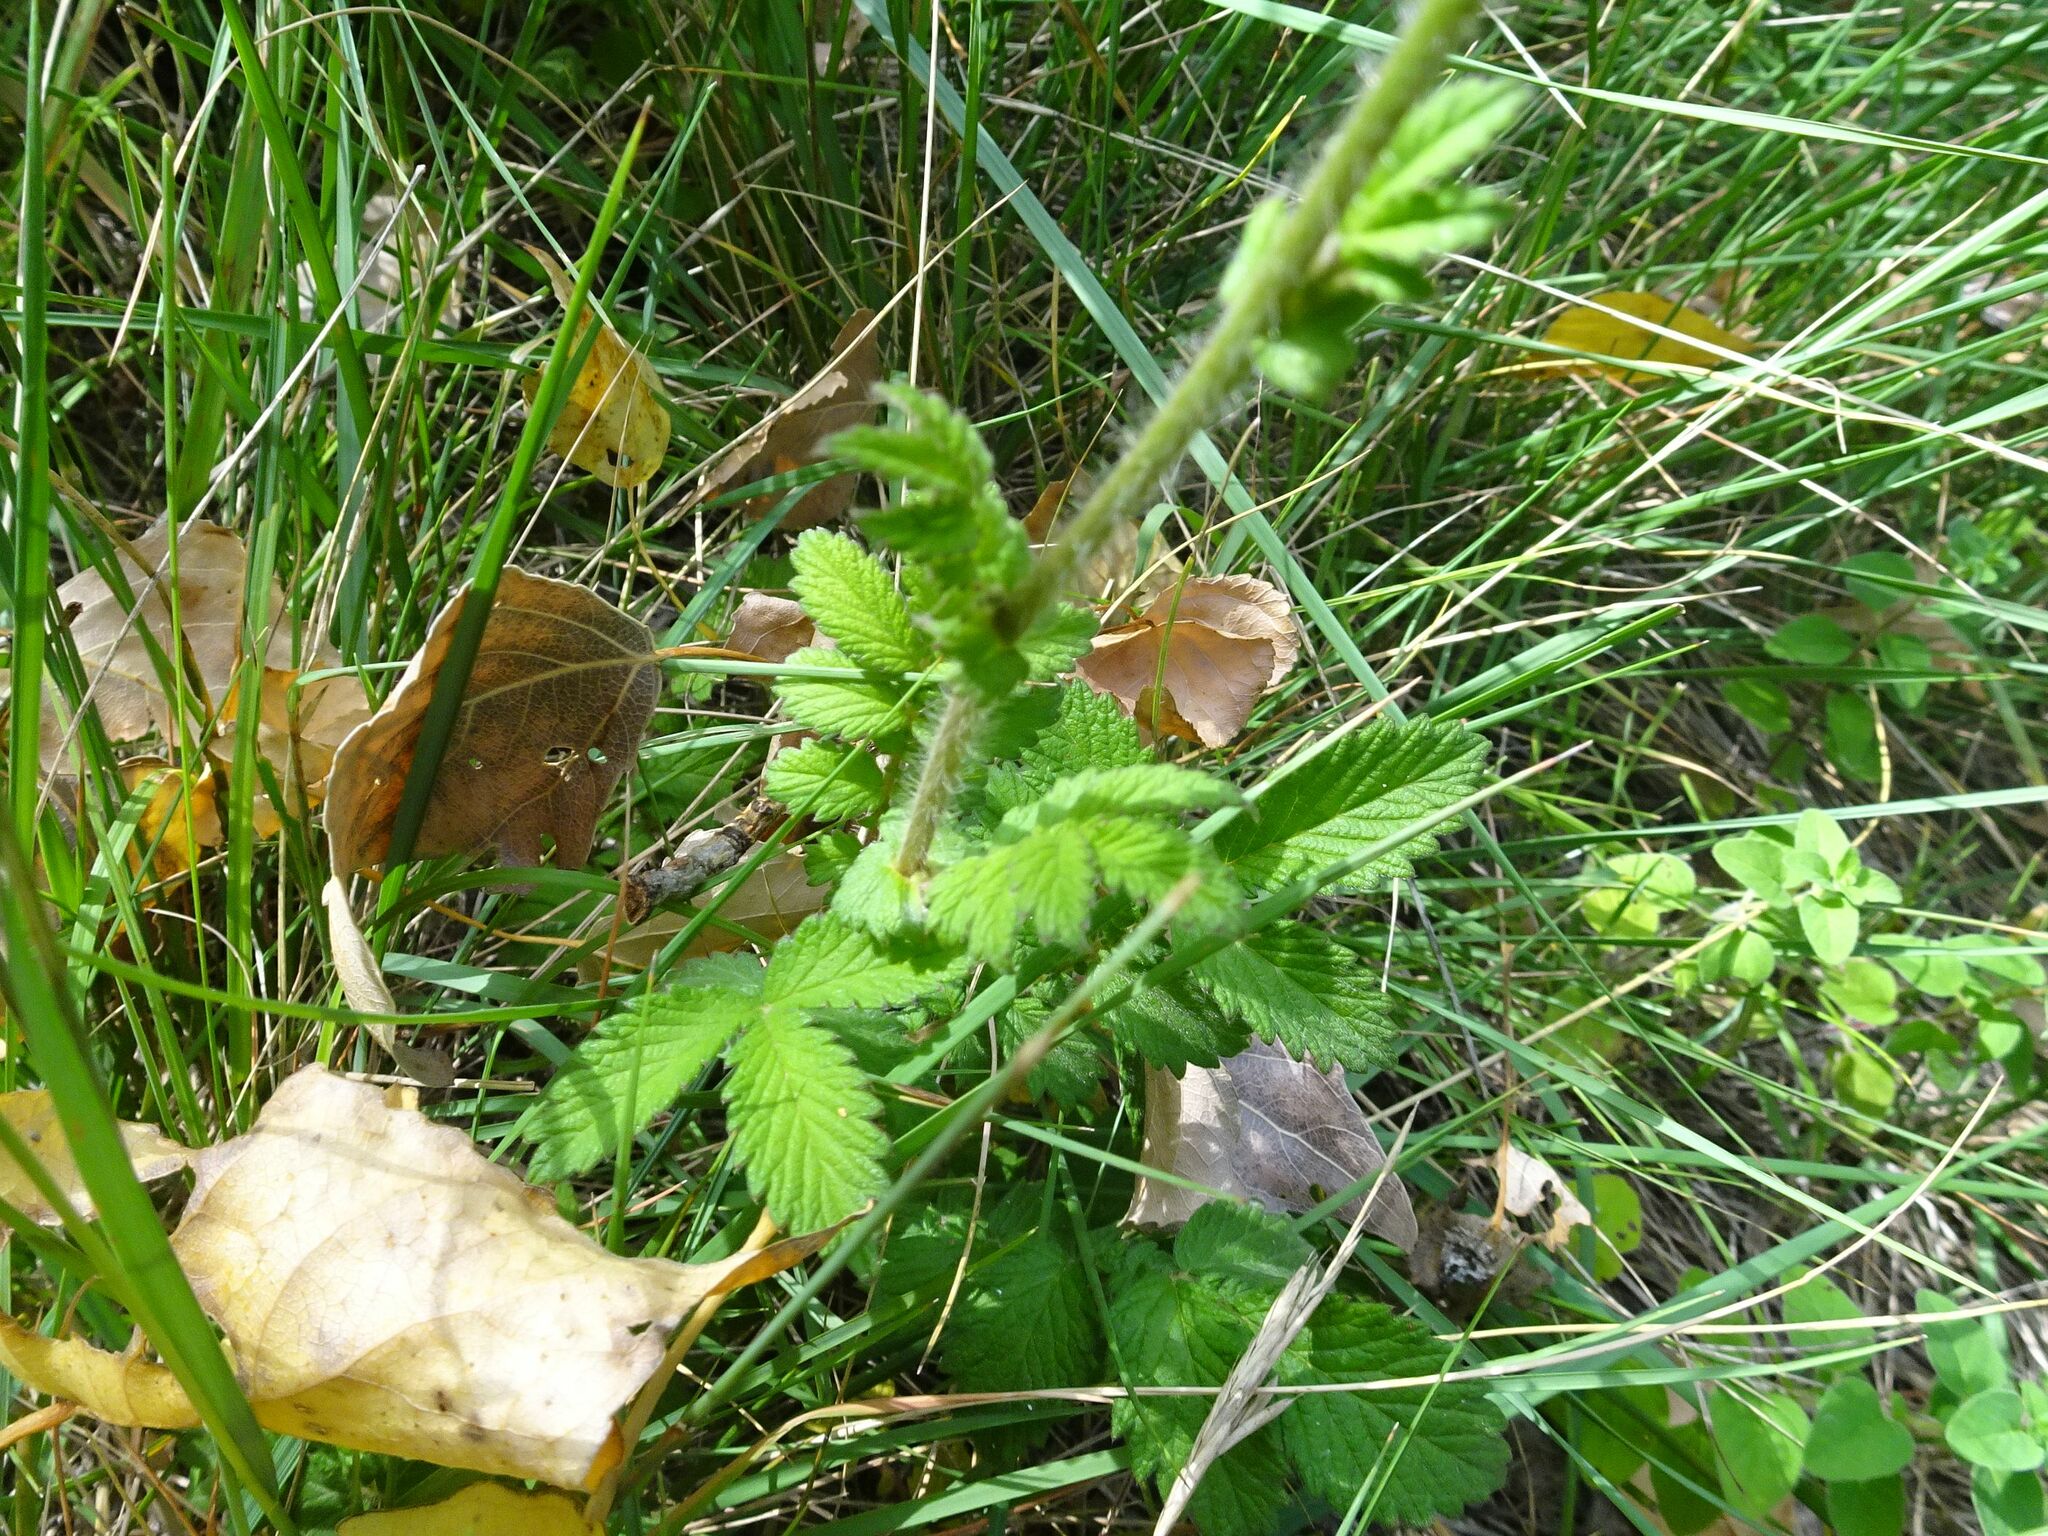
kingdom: Plantae
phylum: Tracheophyta
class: Magnoliopsida
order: Rosales
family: Rosaceae
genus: Agrimonia
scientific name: Agrimonia eupatoria
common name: Agrimony
